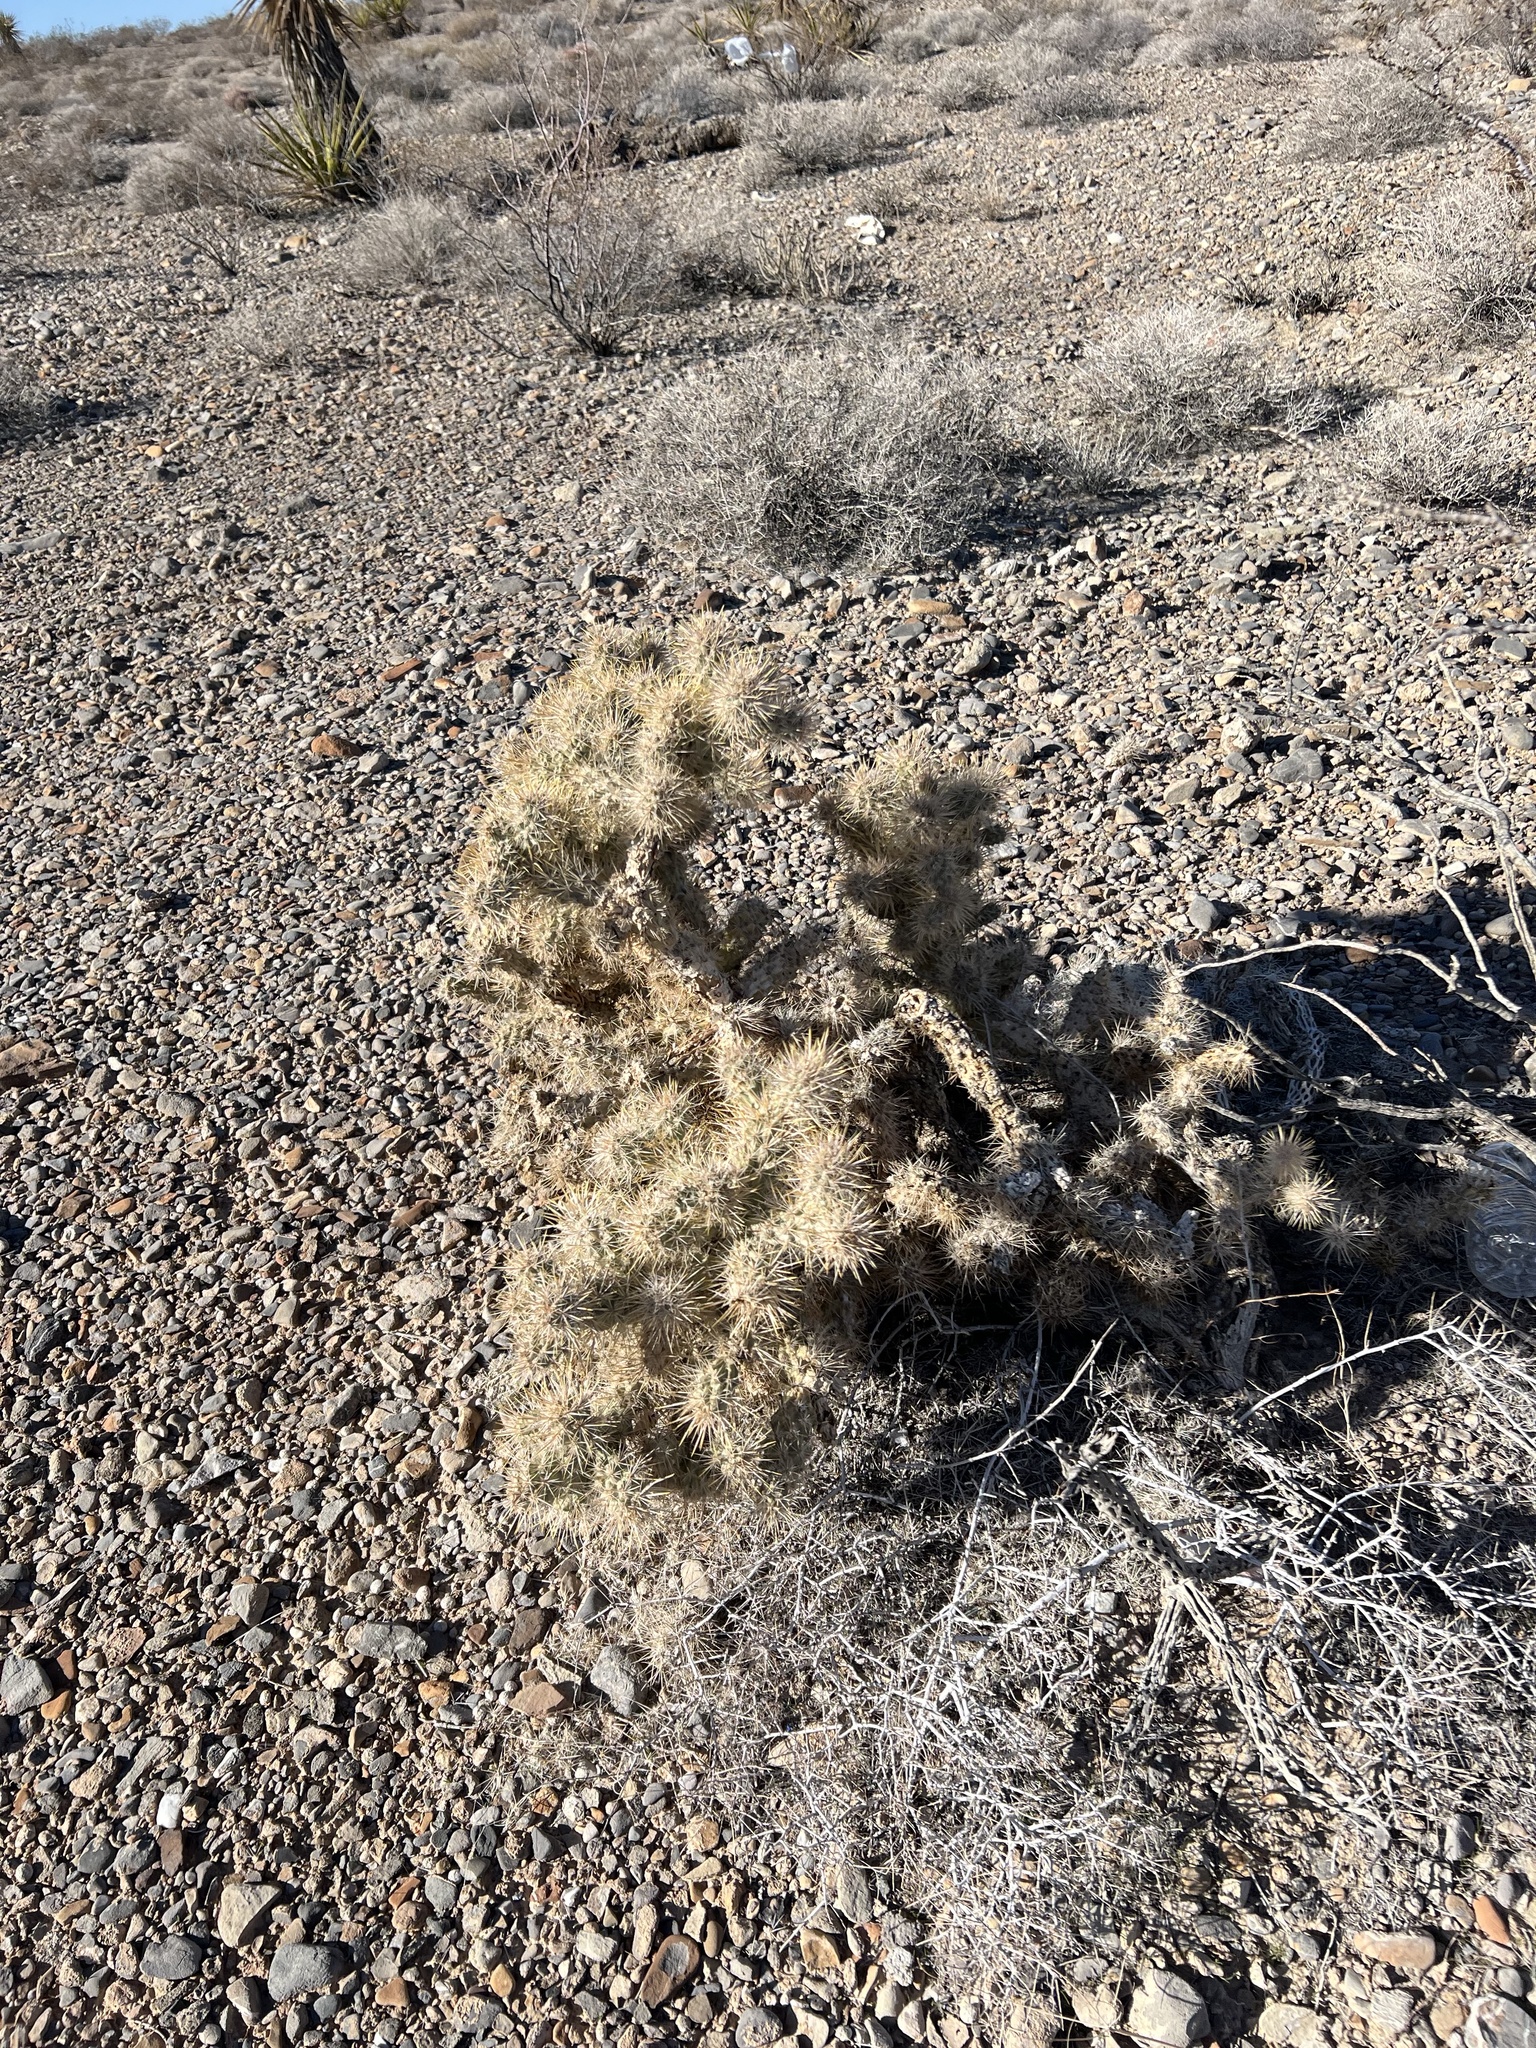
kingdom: Plantae
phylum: Tracheophyta
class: Magnoliopsida
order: Caryophyllales
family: Cactaceae
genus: Cylindropuntia
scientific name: Cylindropuntia echinocarpa
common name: Ground cholla
